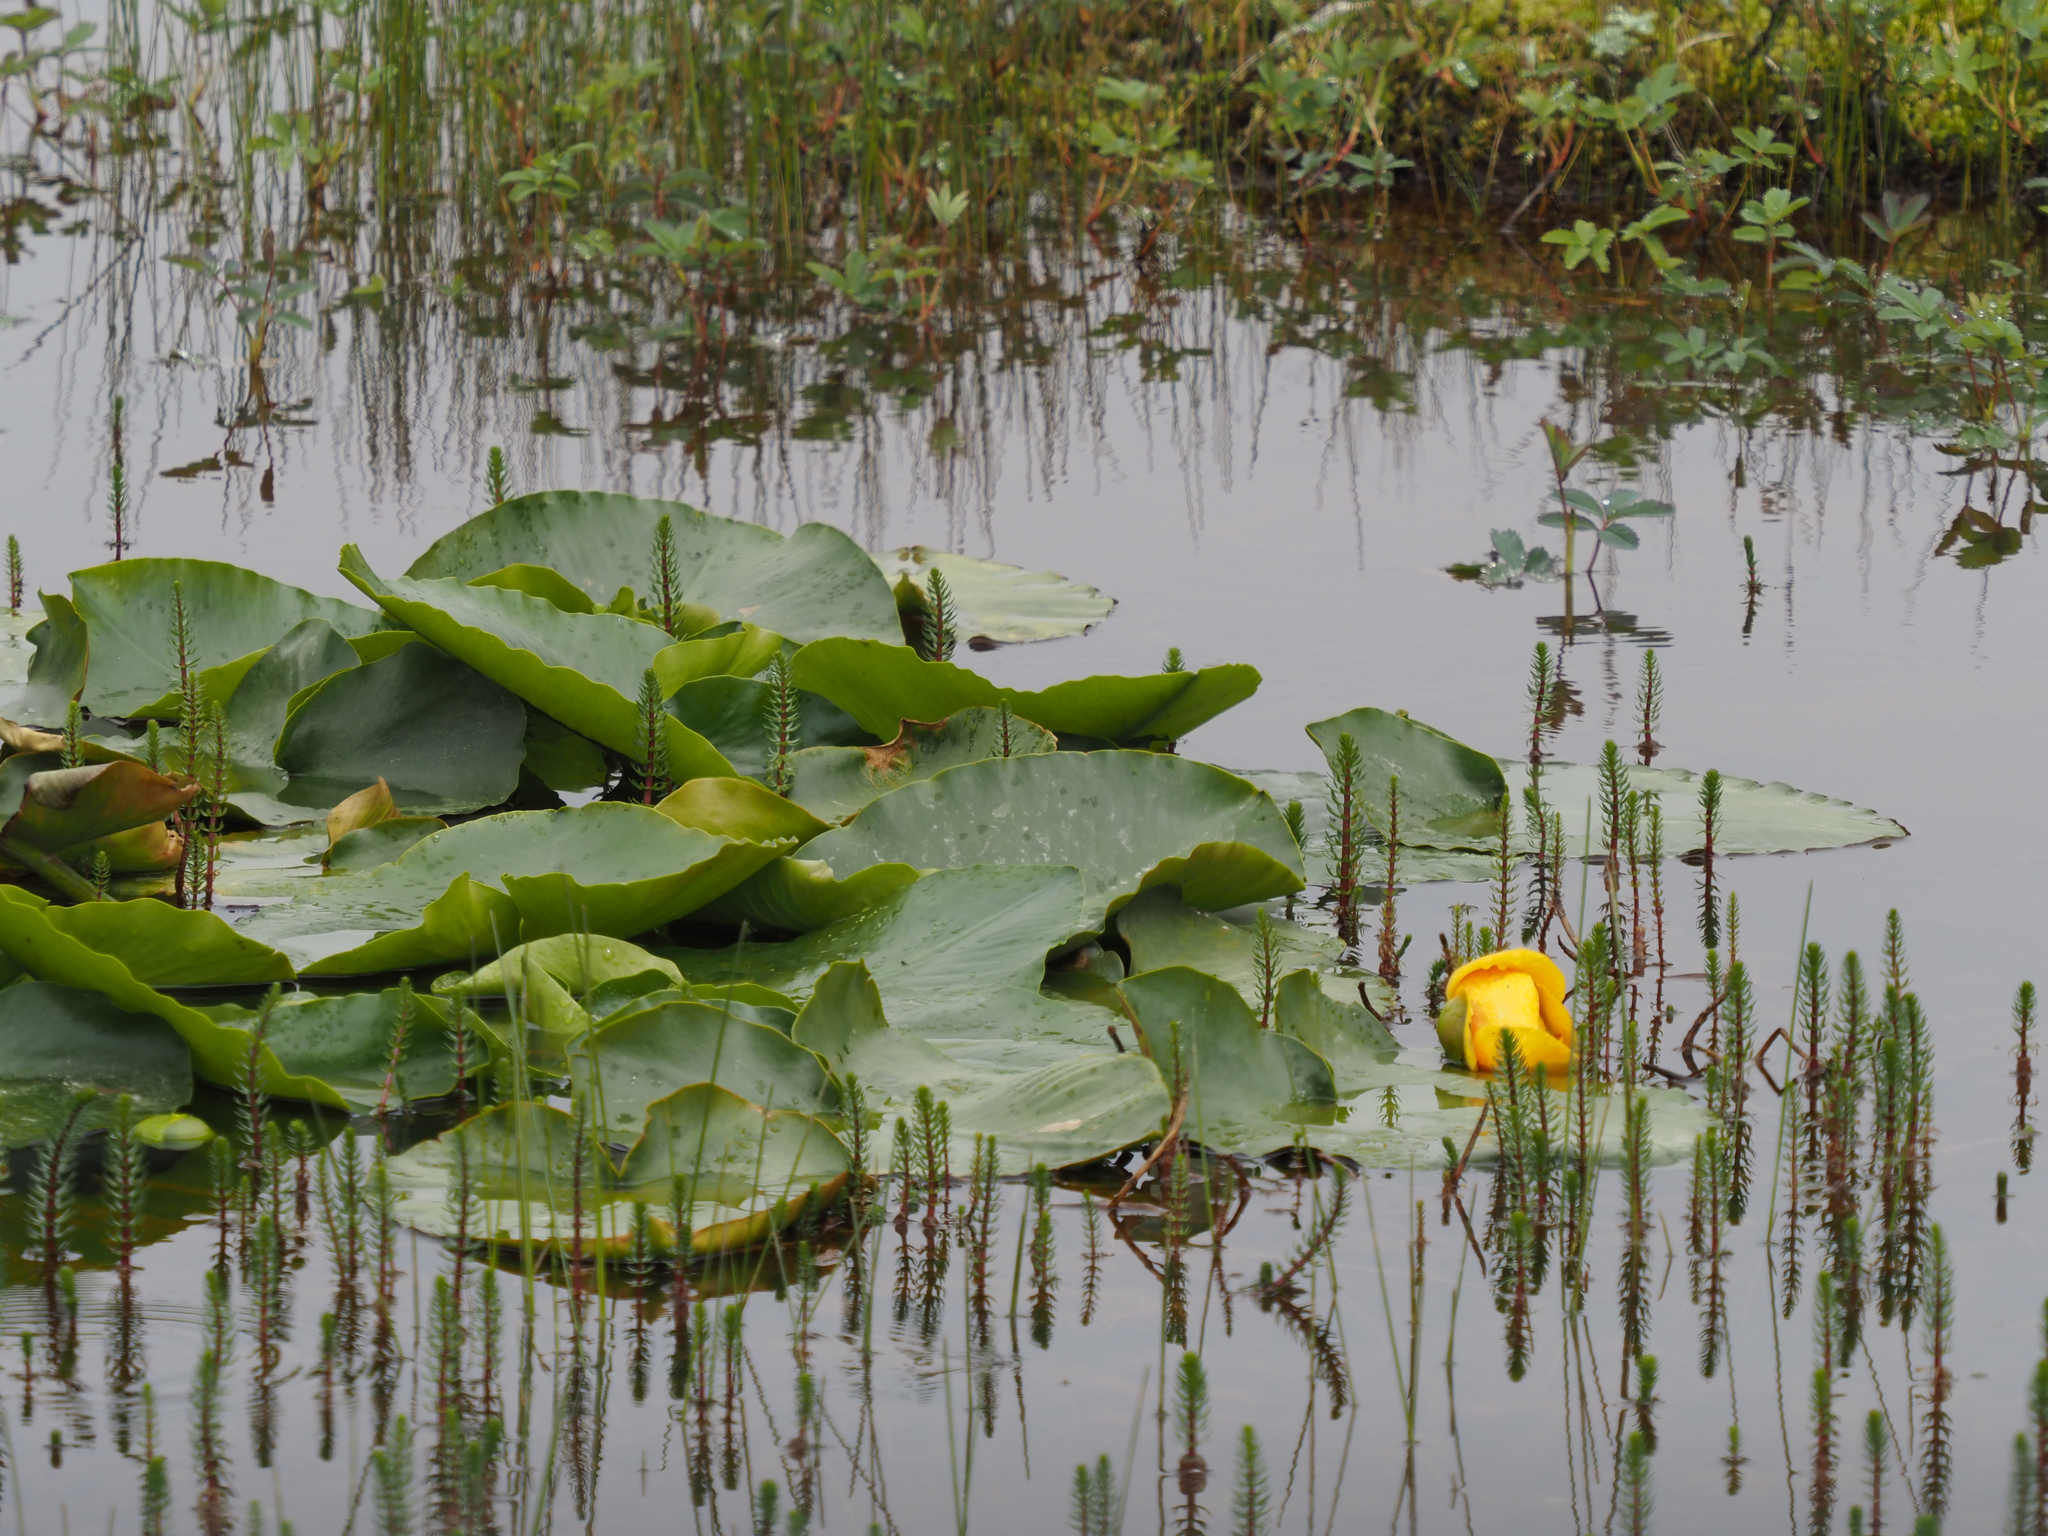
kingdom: Plantae
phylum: Tracheophyta
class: Magnoliopsida
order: Nymphaeales
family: Nymphaeaceae
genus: Nuphar
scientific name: Nuphar polysepala
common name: Rocky mountain cow-lily
